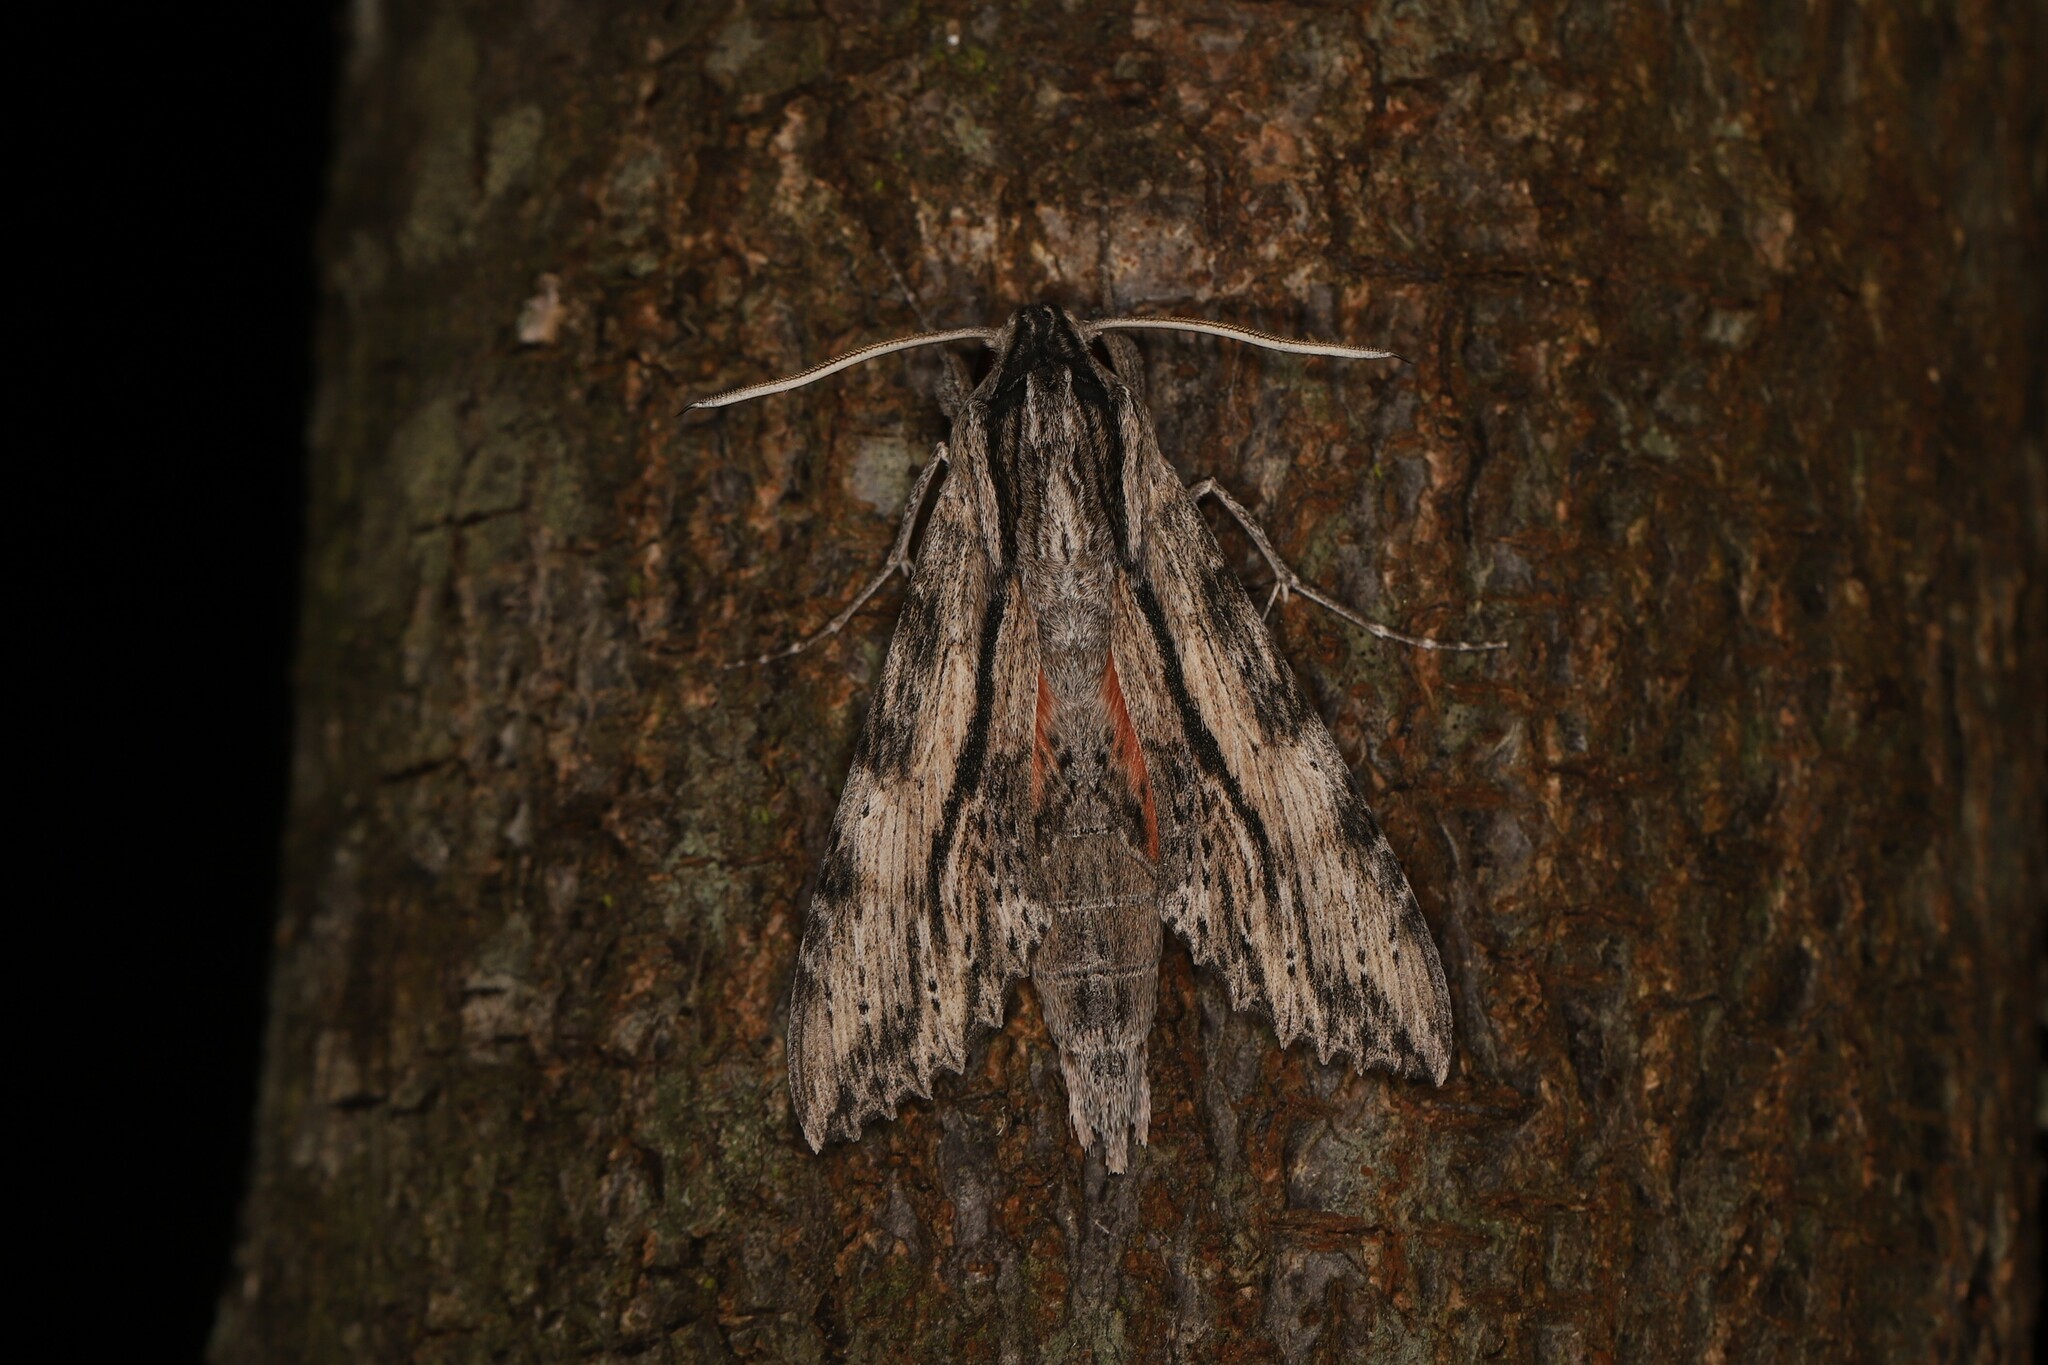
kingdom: Animalia
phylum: Arthropoda
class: Insecta
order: Lepidoptera
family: Sphingidae
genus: Erinnyis
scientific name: Erinnyis obscura
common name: Obscure sphinx
